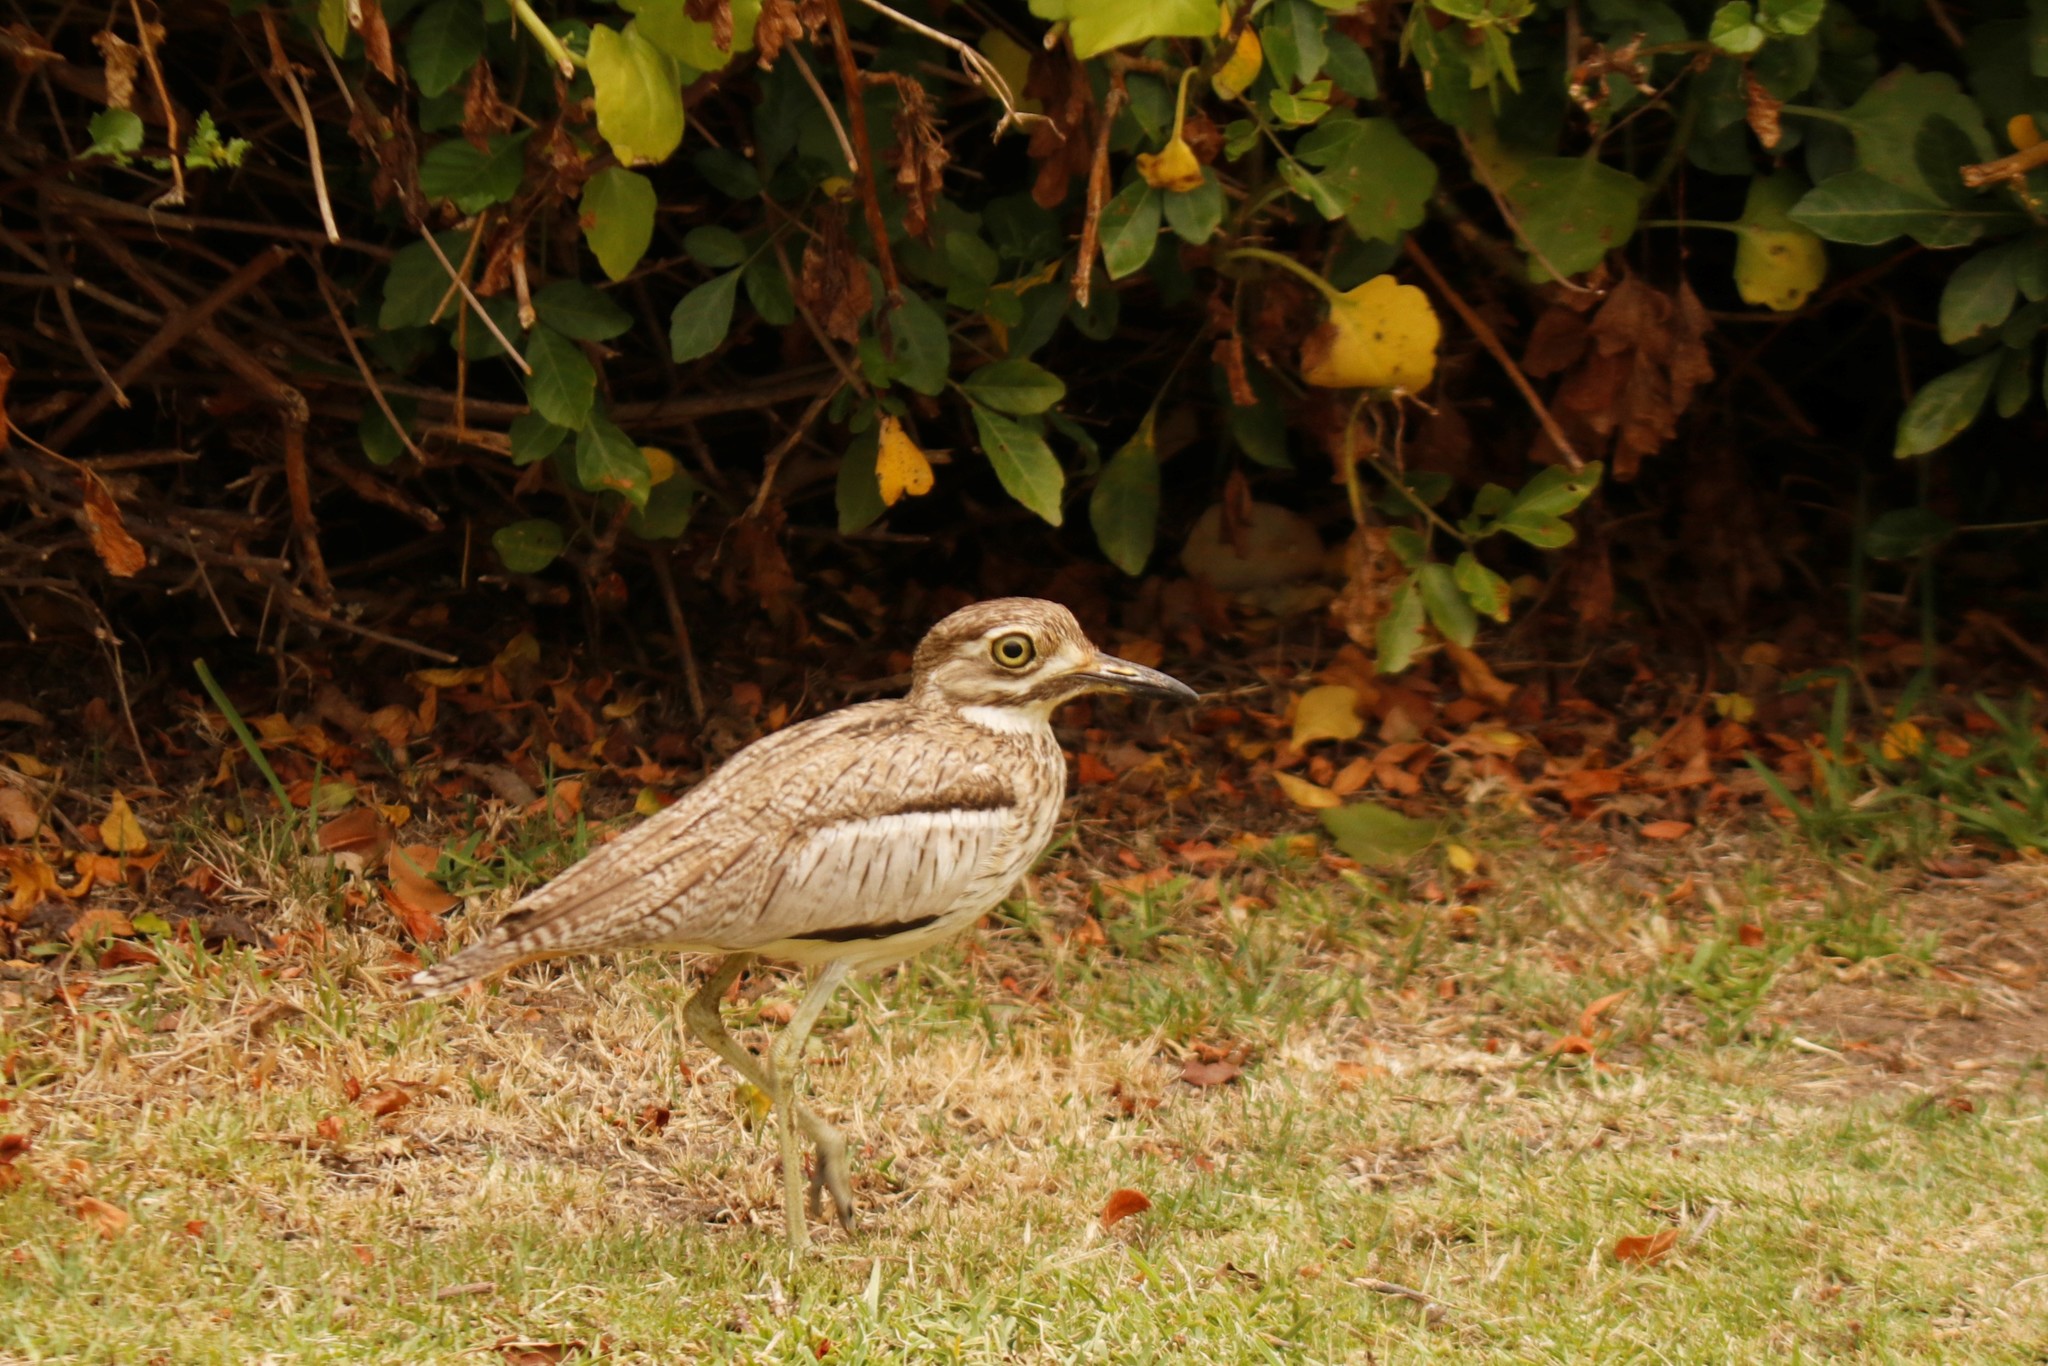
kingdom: Animalia
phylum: Chordata
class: Aves
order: Charadriiformes
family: Burhinidae
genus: Burhinus
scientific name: Burhinus vermiculatus
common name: Water thick-knee
